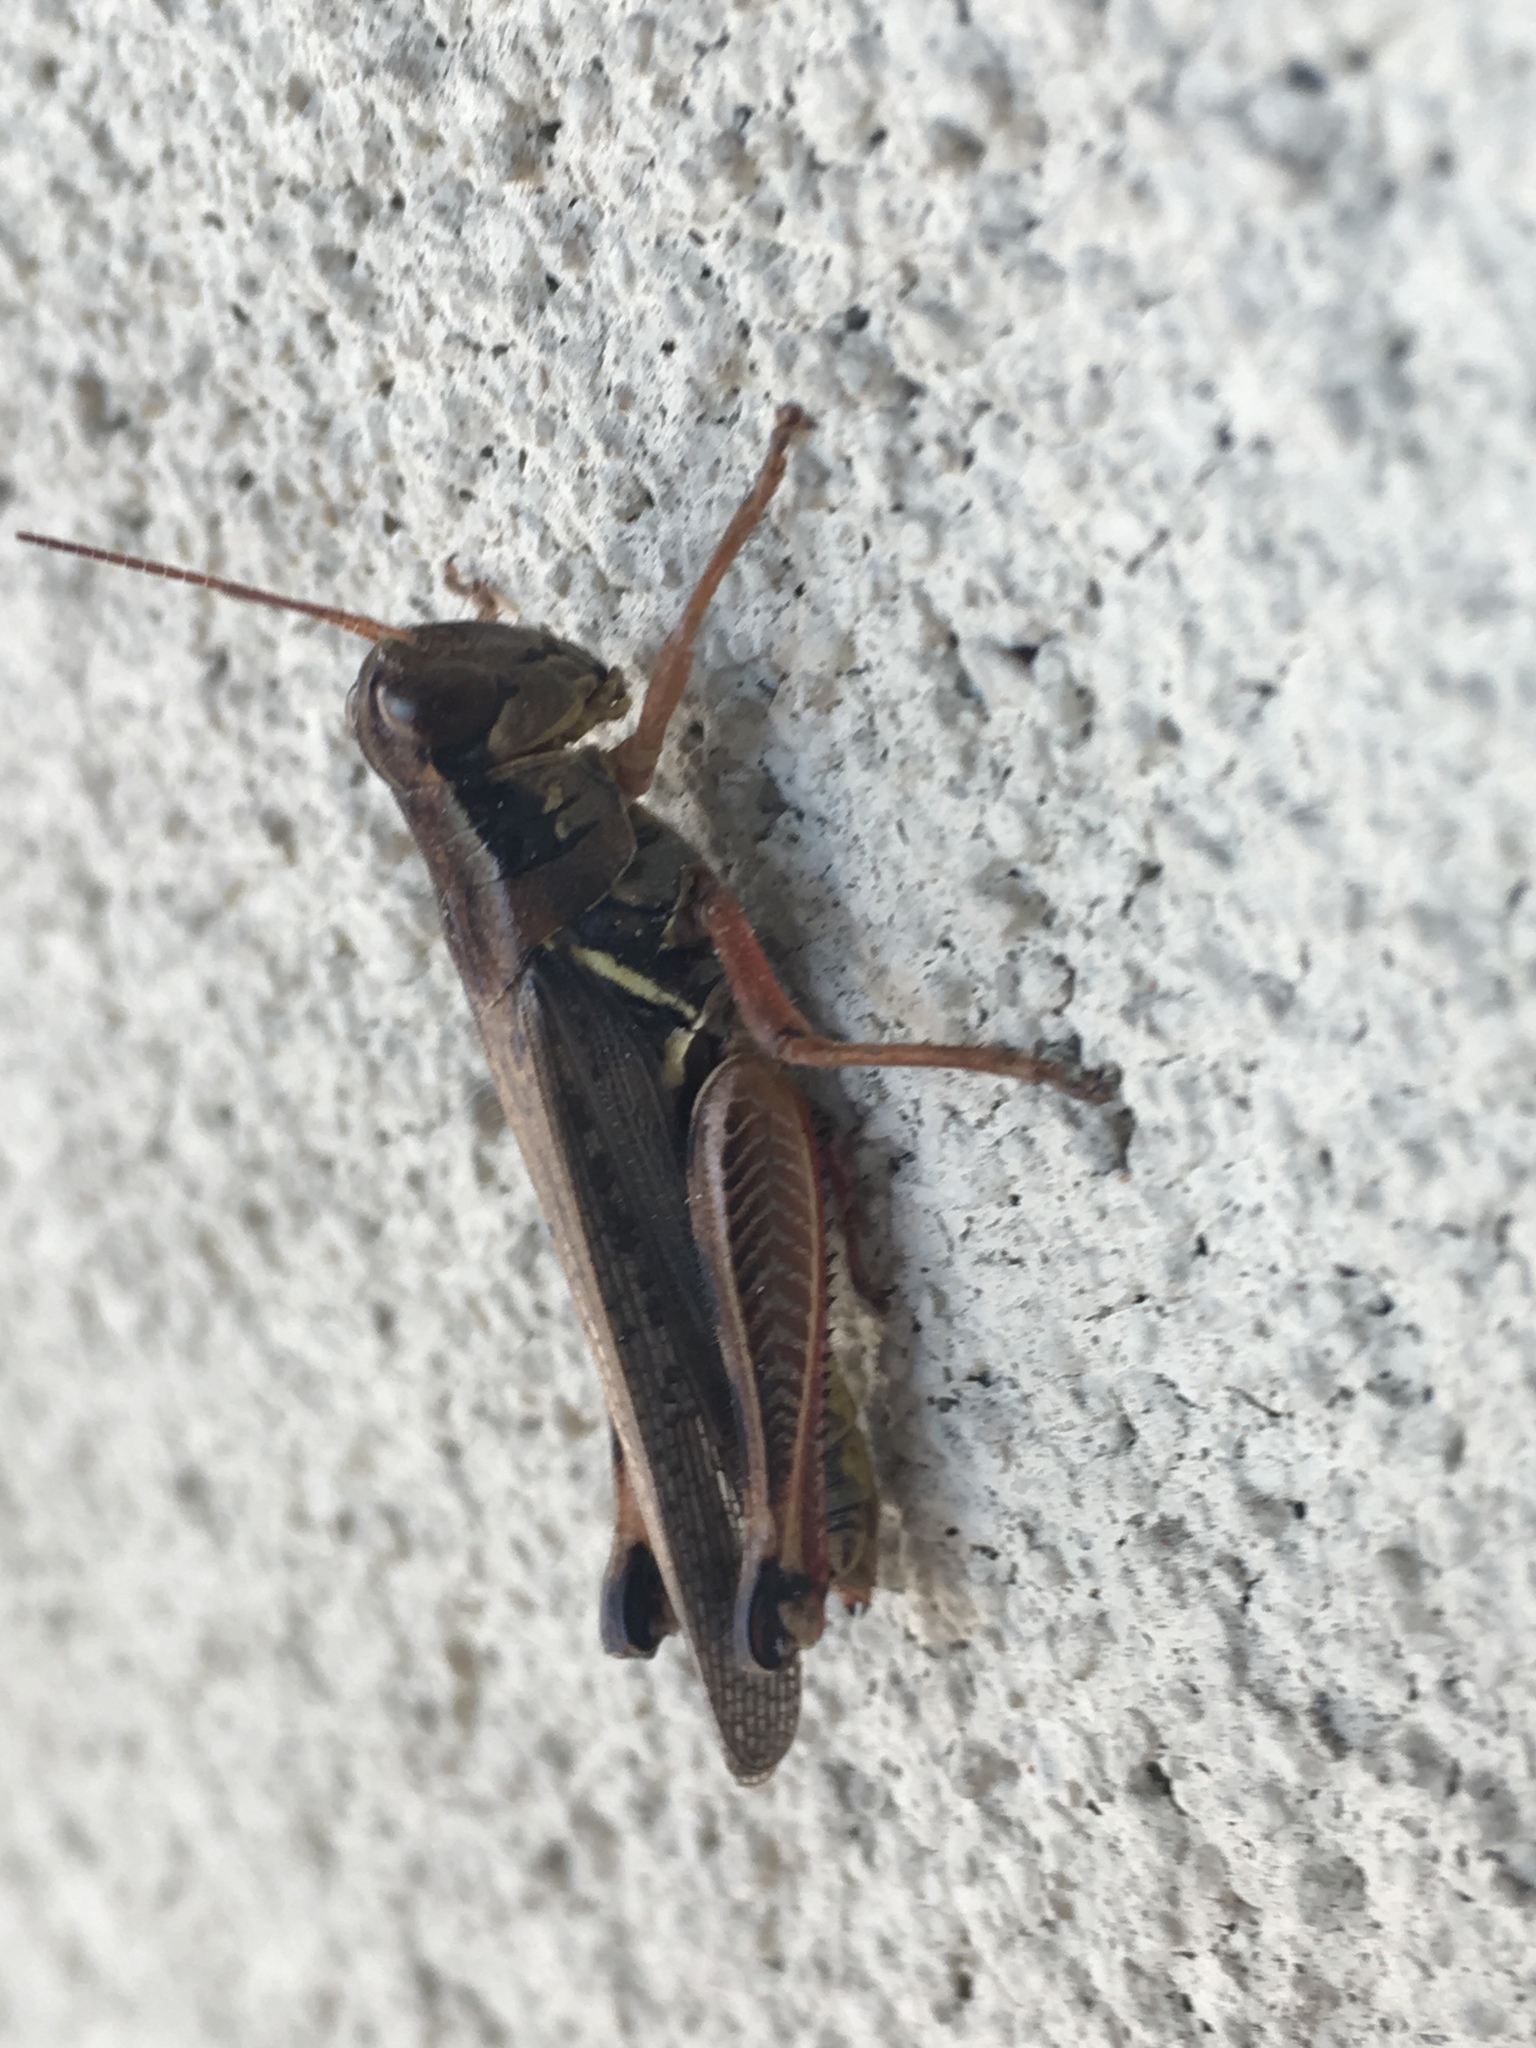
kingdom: Animalia
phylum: Arthropoda
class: Insecta
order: Orthoptera
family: Acrididae
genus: Melanoplus
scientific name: Melanoplus femurrubrum
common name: Red-legged grasshopper
